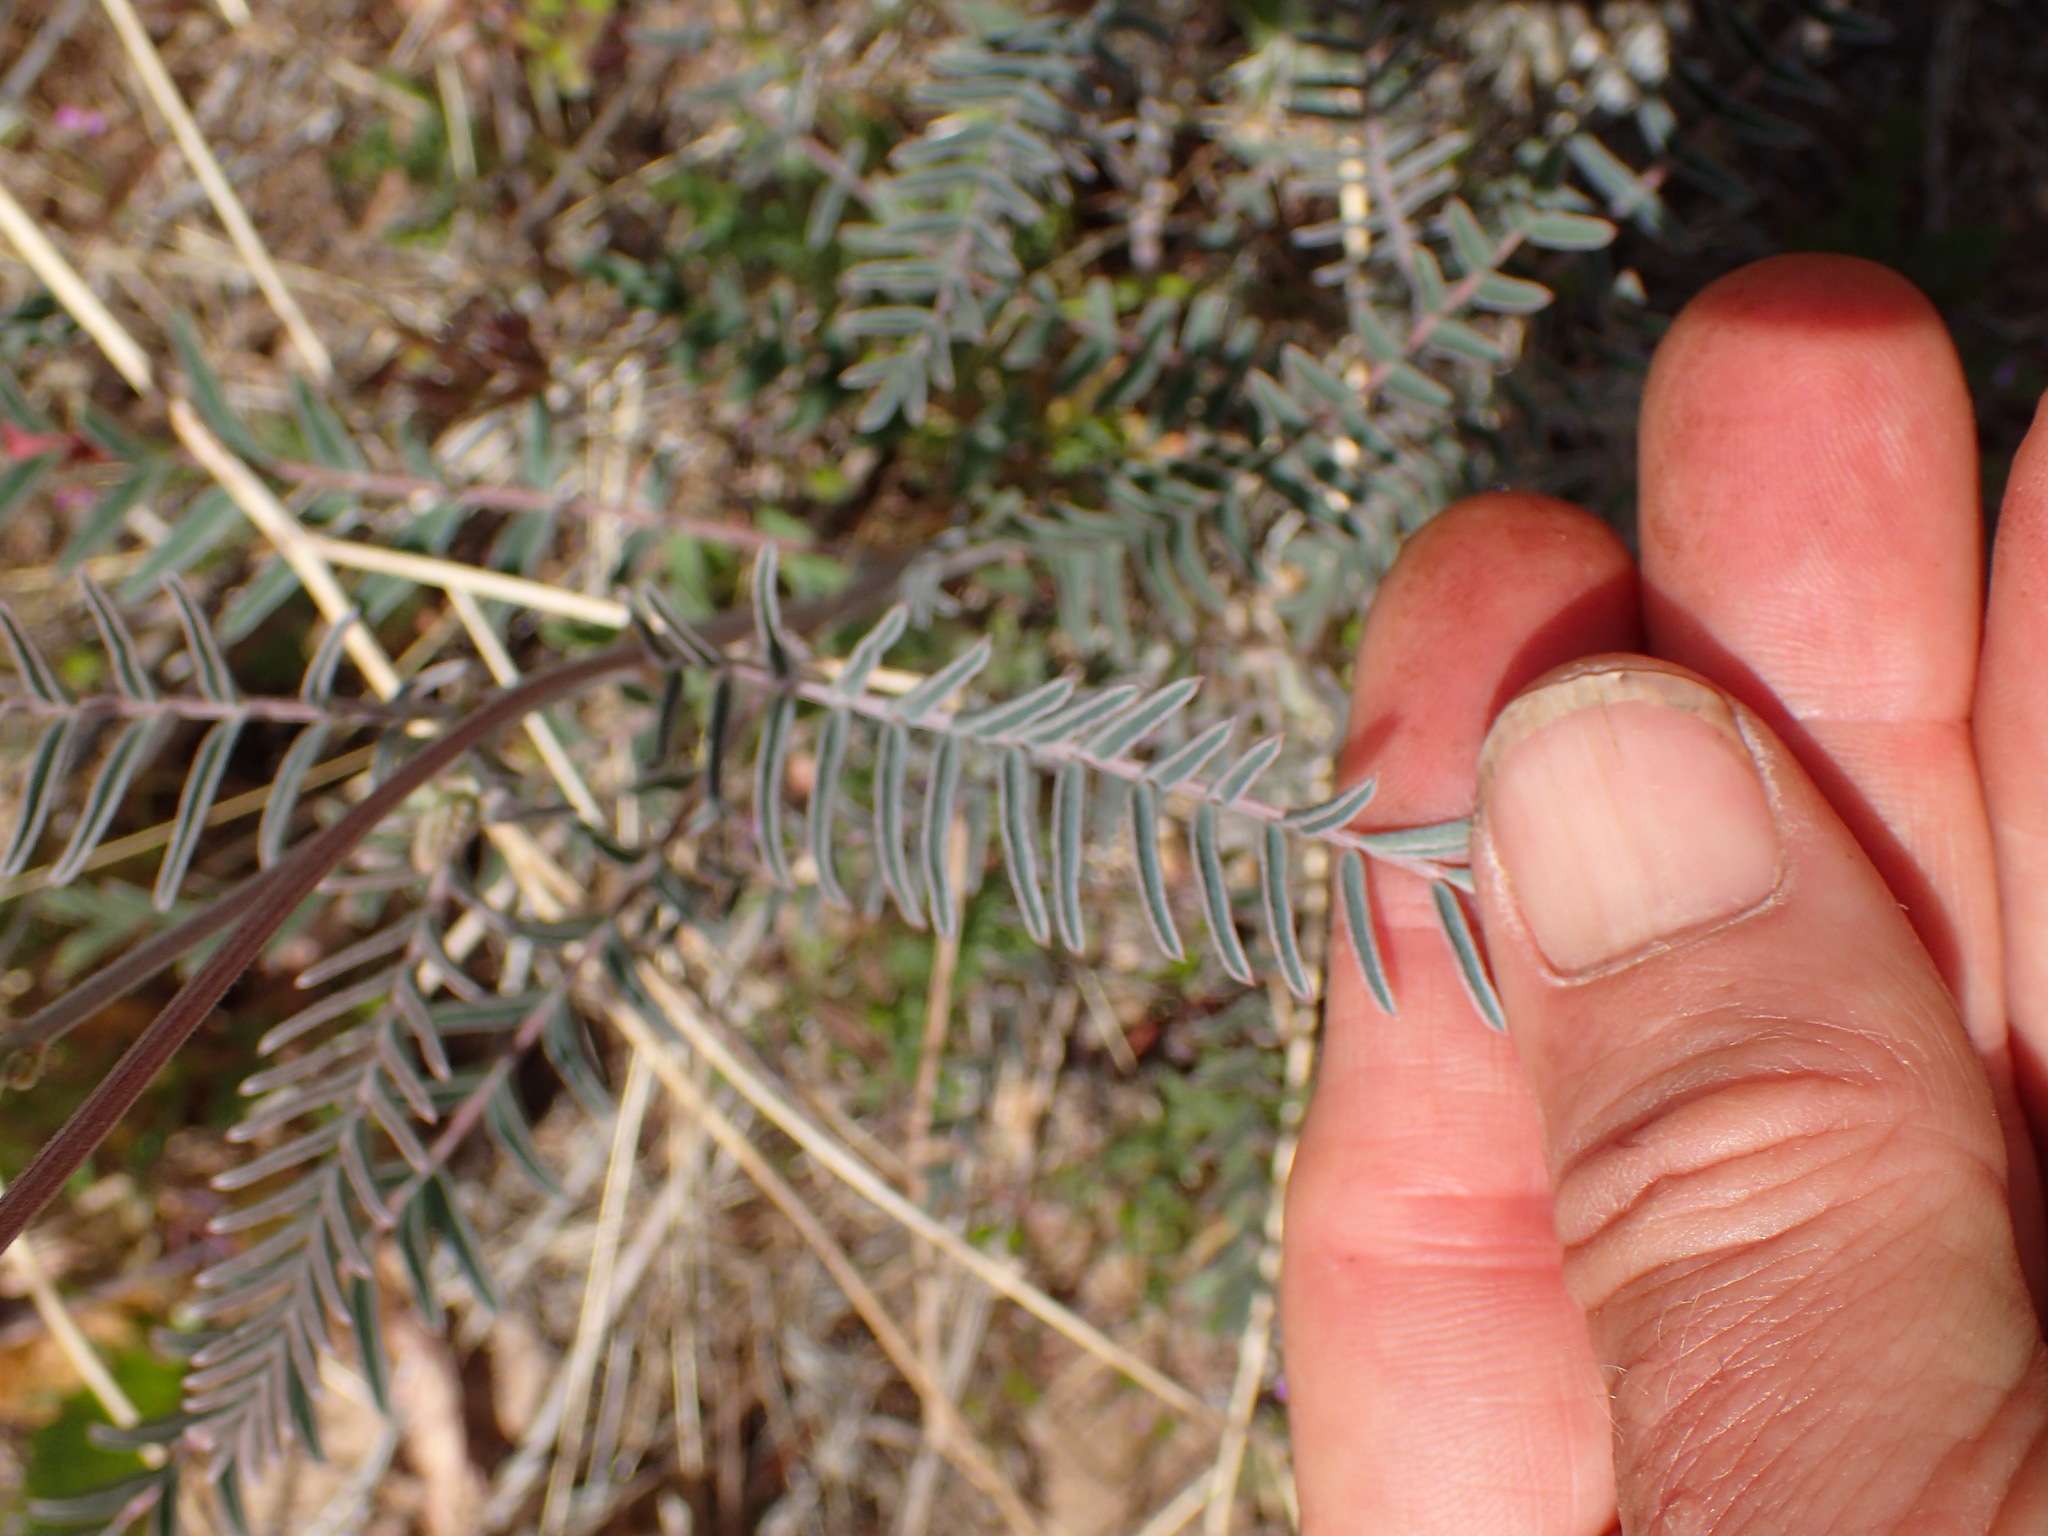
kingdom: Plantae
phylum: Tracheophyta
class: Magnoliopsida
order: Fabales
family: Fabaceae
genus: Astragalus
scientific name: Astragalus trichopodus
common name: Santa barbara milk-vetch
